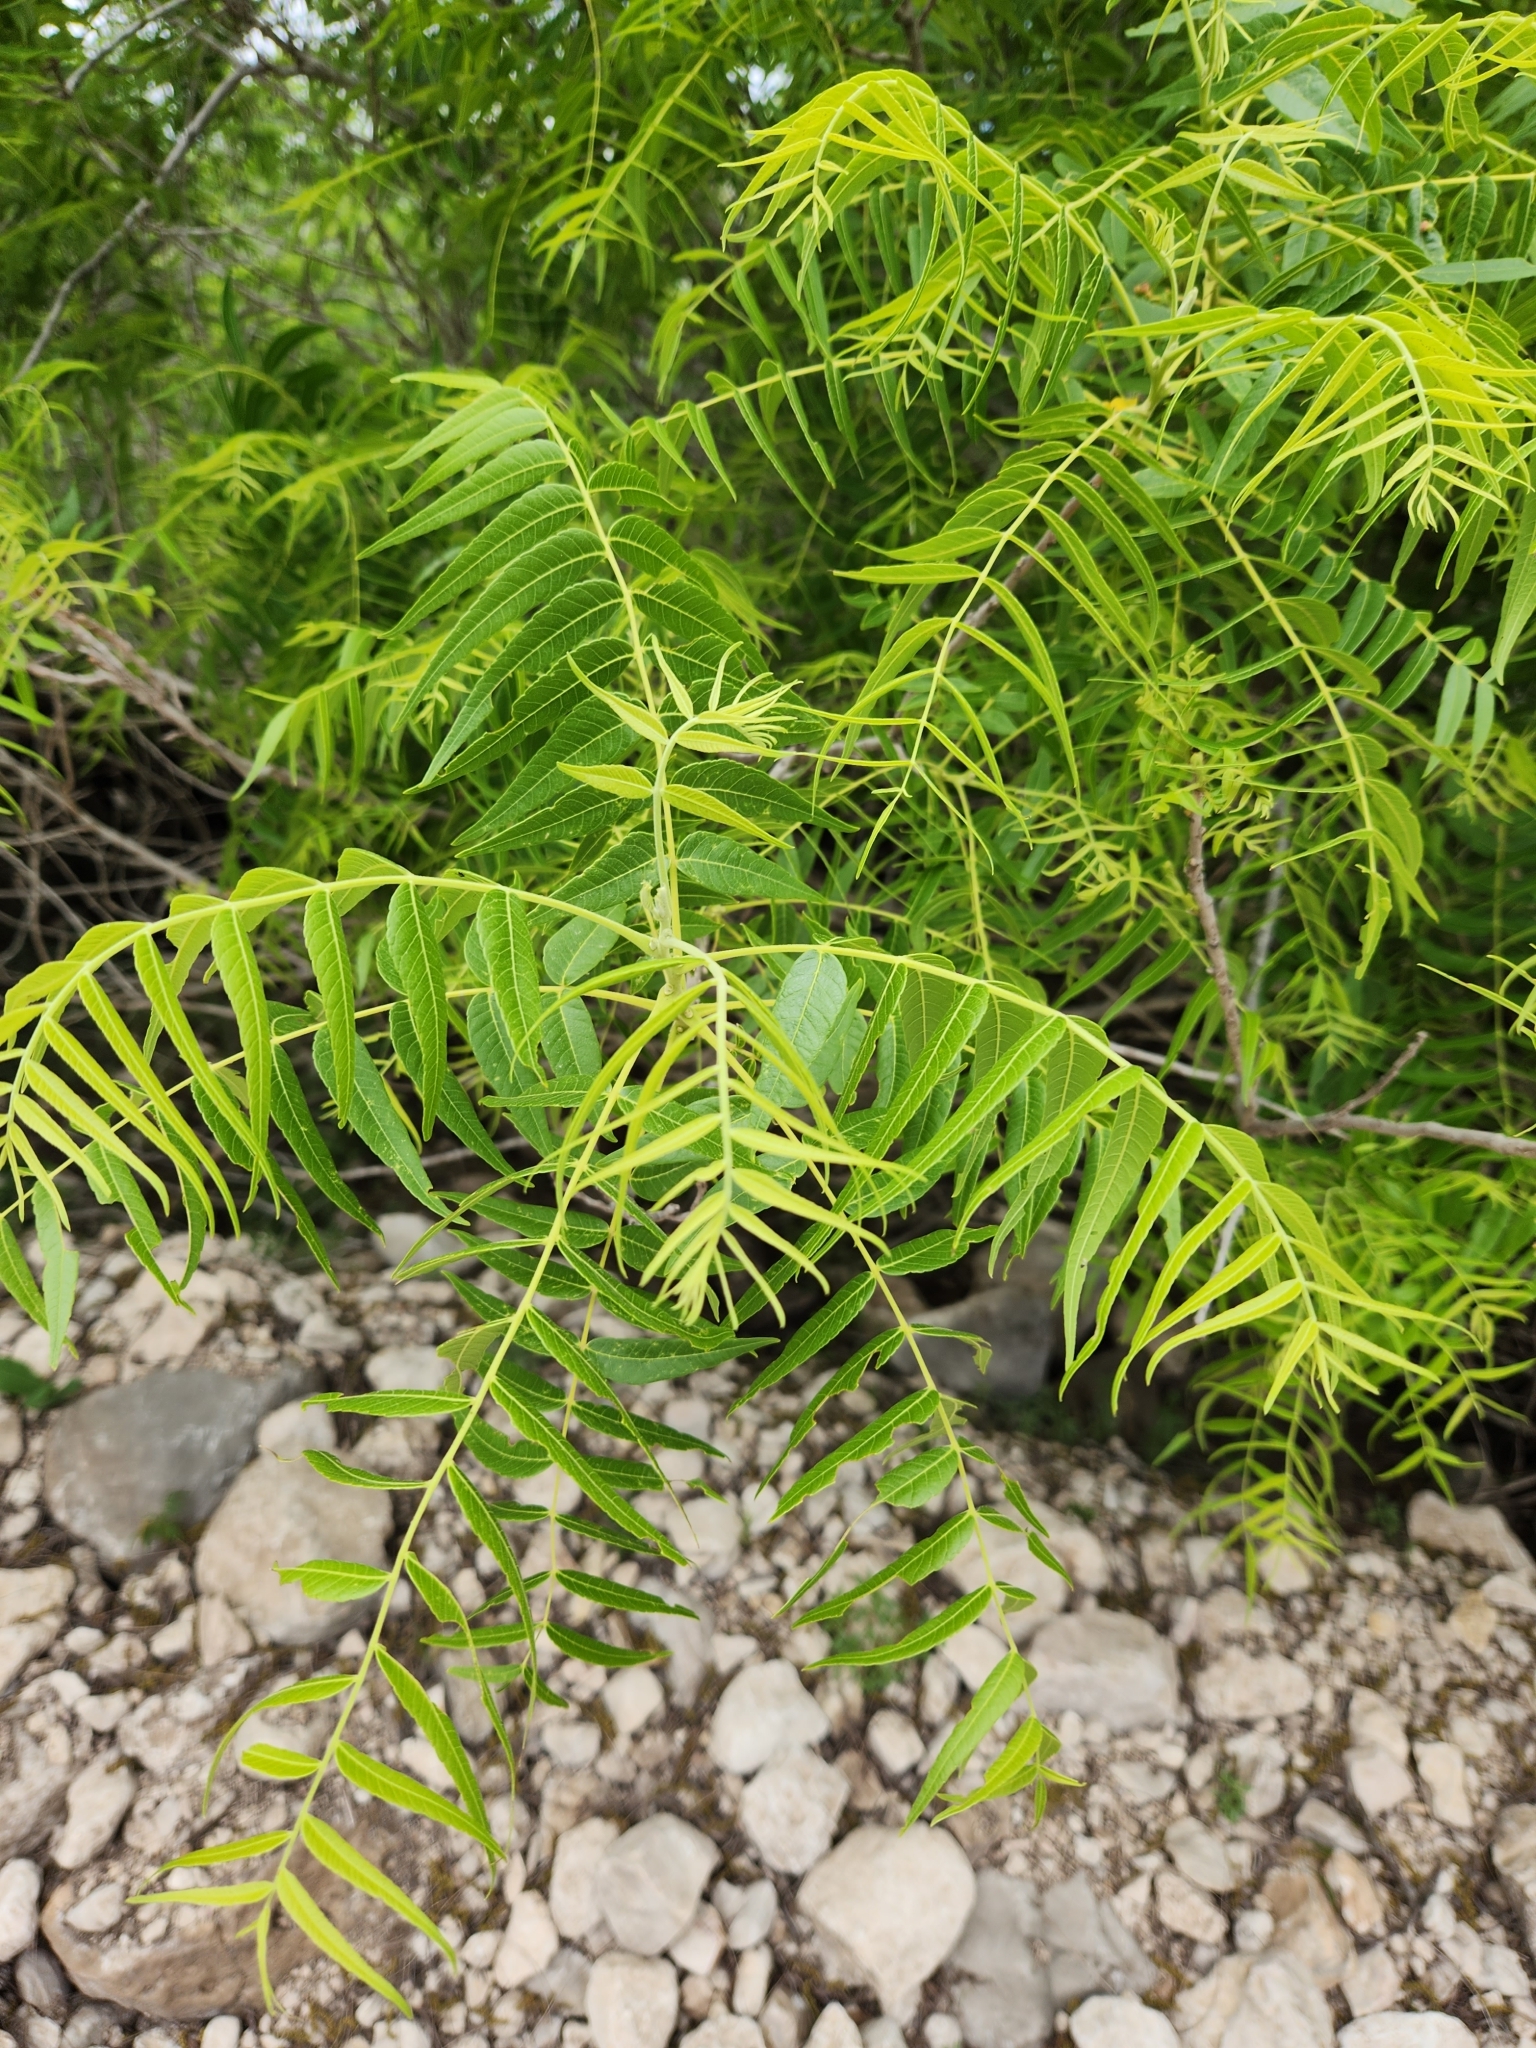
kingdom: Plantae
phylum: Tracheophyta
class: Magnoliopsida
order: Fagales
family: Juglandaceae
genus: Juglans
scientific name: Juglans microcarpa
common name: Texas walnut
